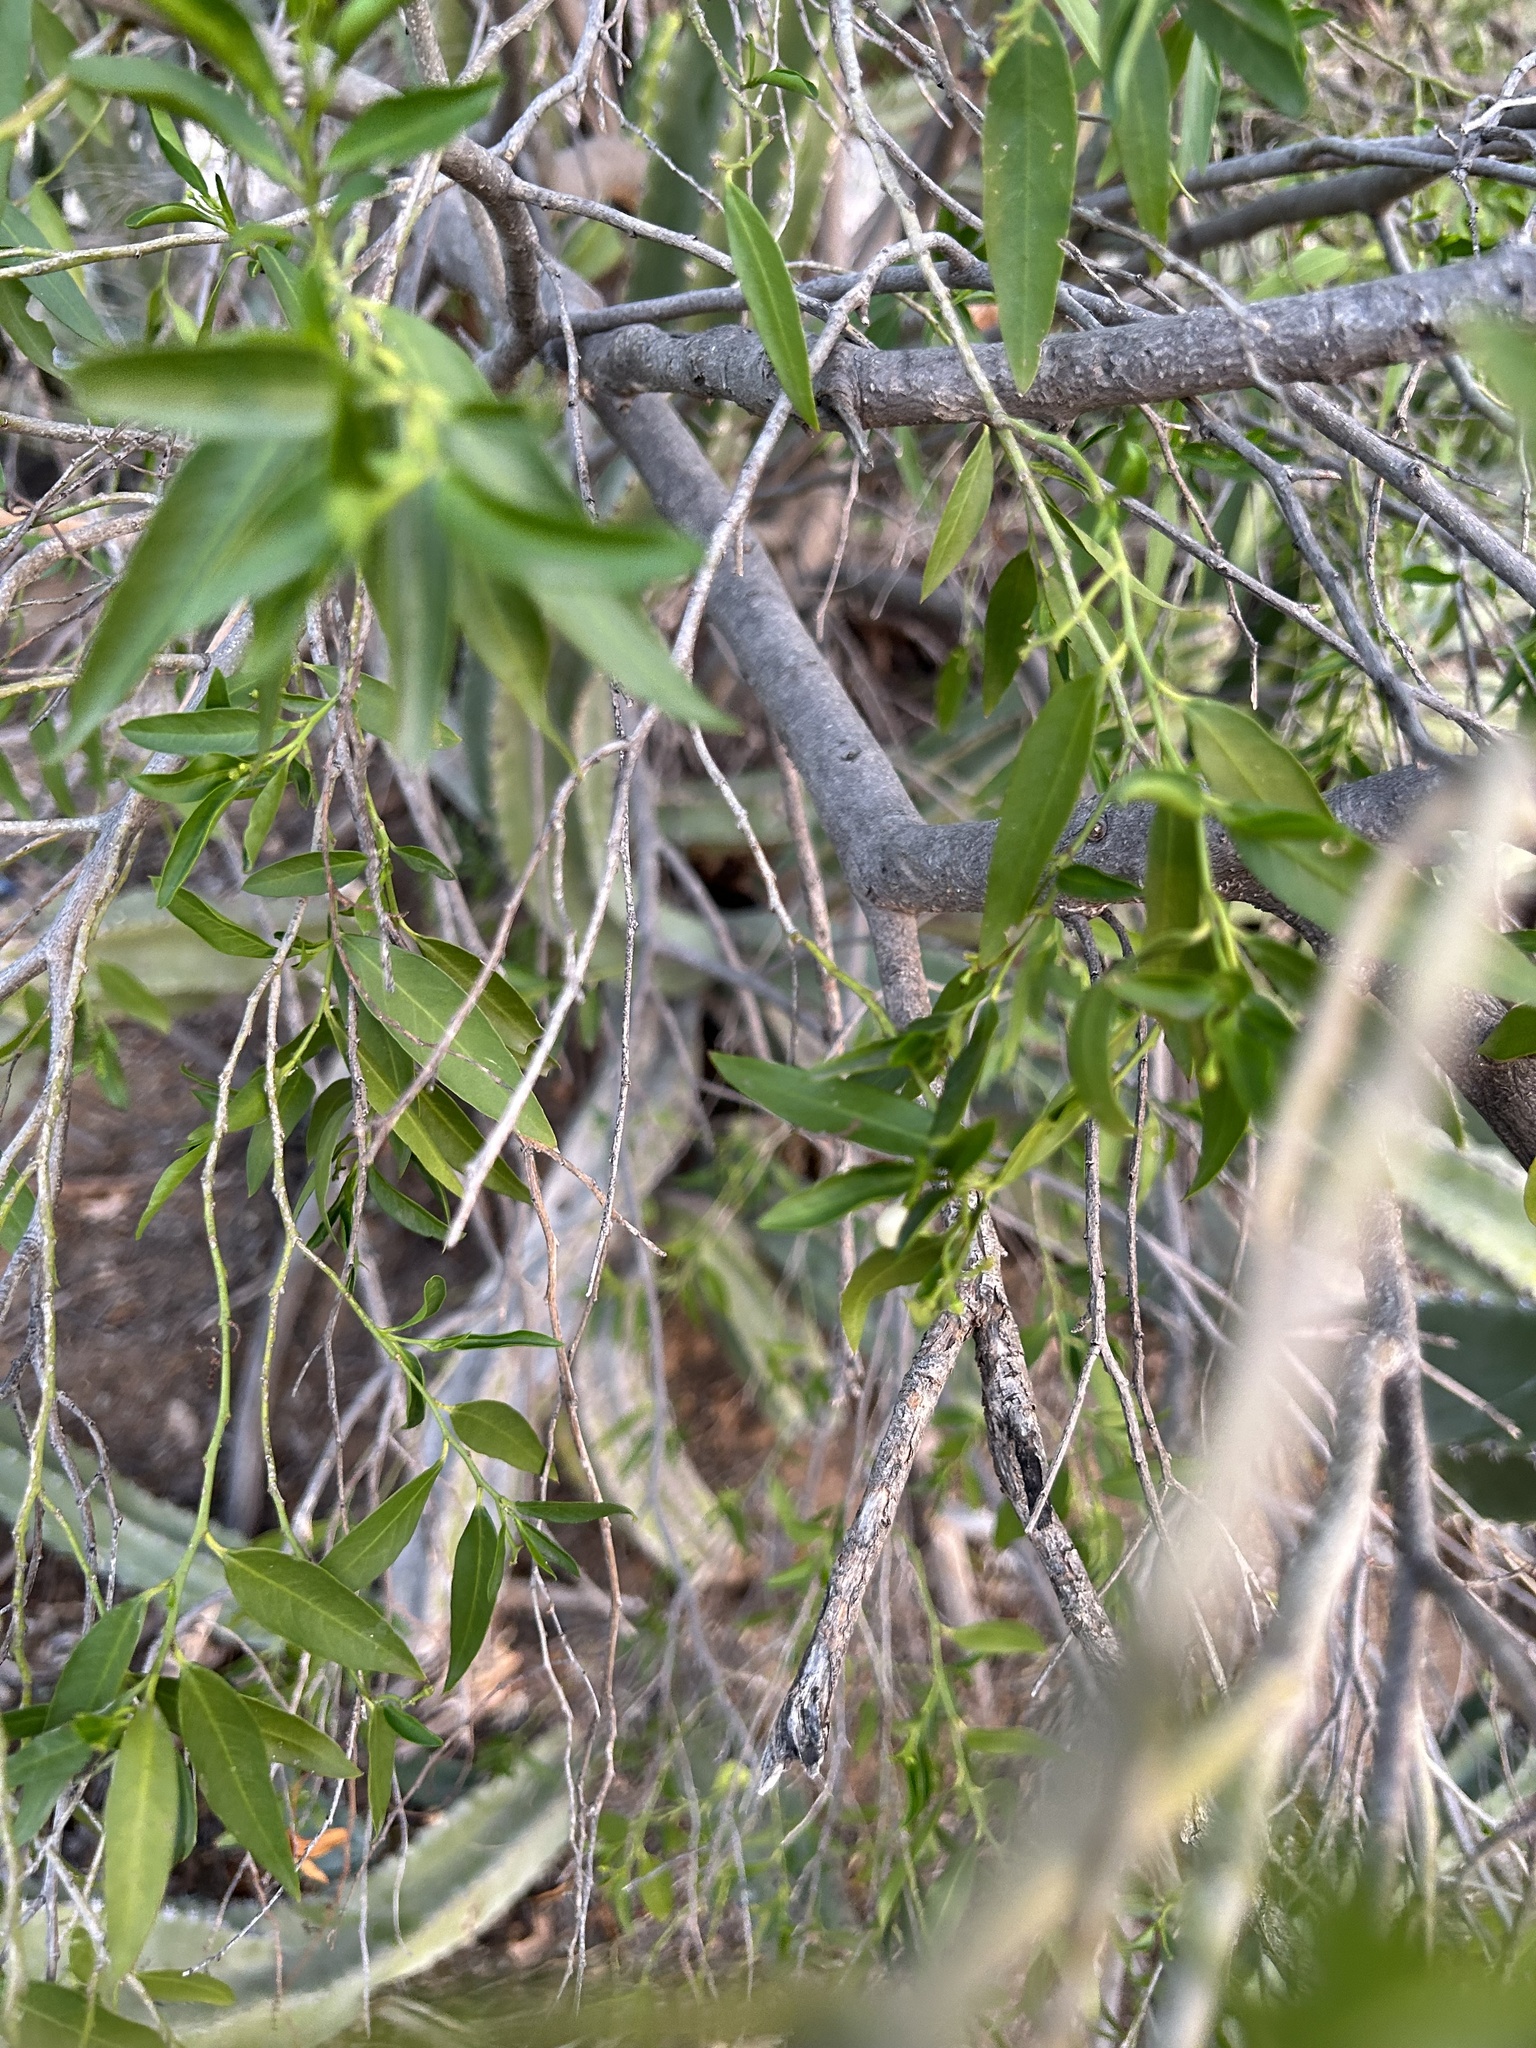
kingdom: Plantae
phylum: Tracheophyta
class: Magnoliopsida
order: Malpighiales
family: Euphorbiaceae
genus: Pleradenophora
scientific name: Pleradenophora bilocularis
